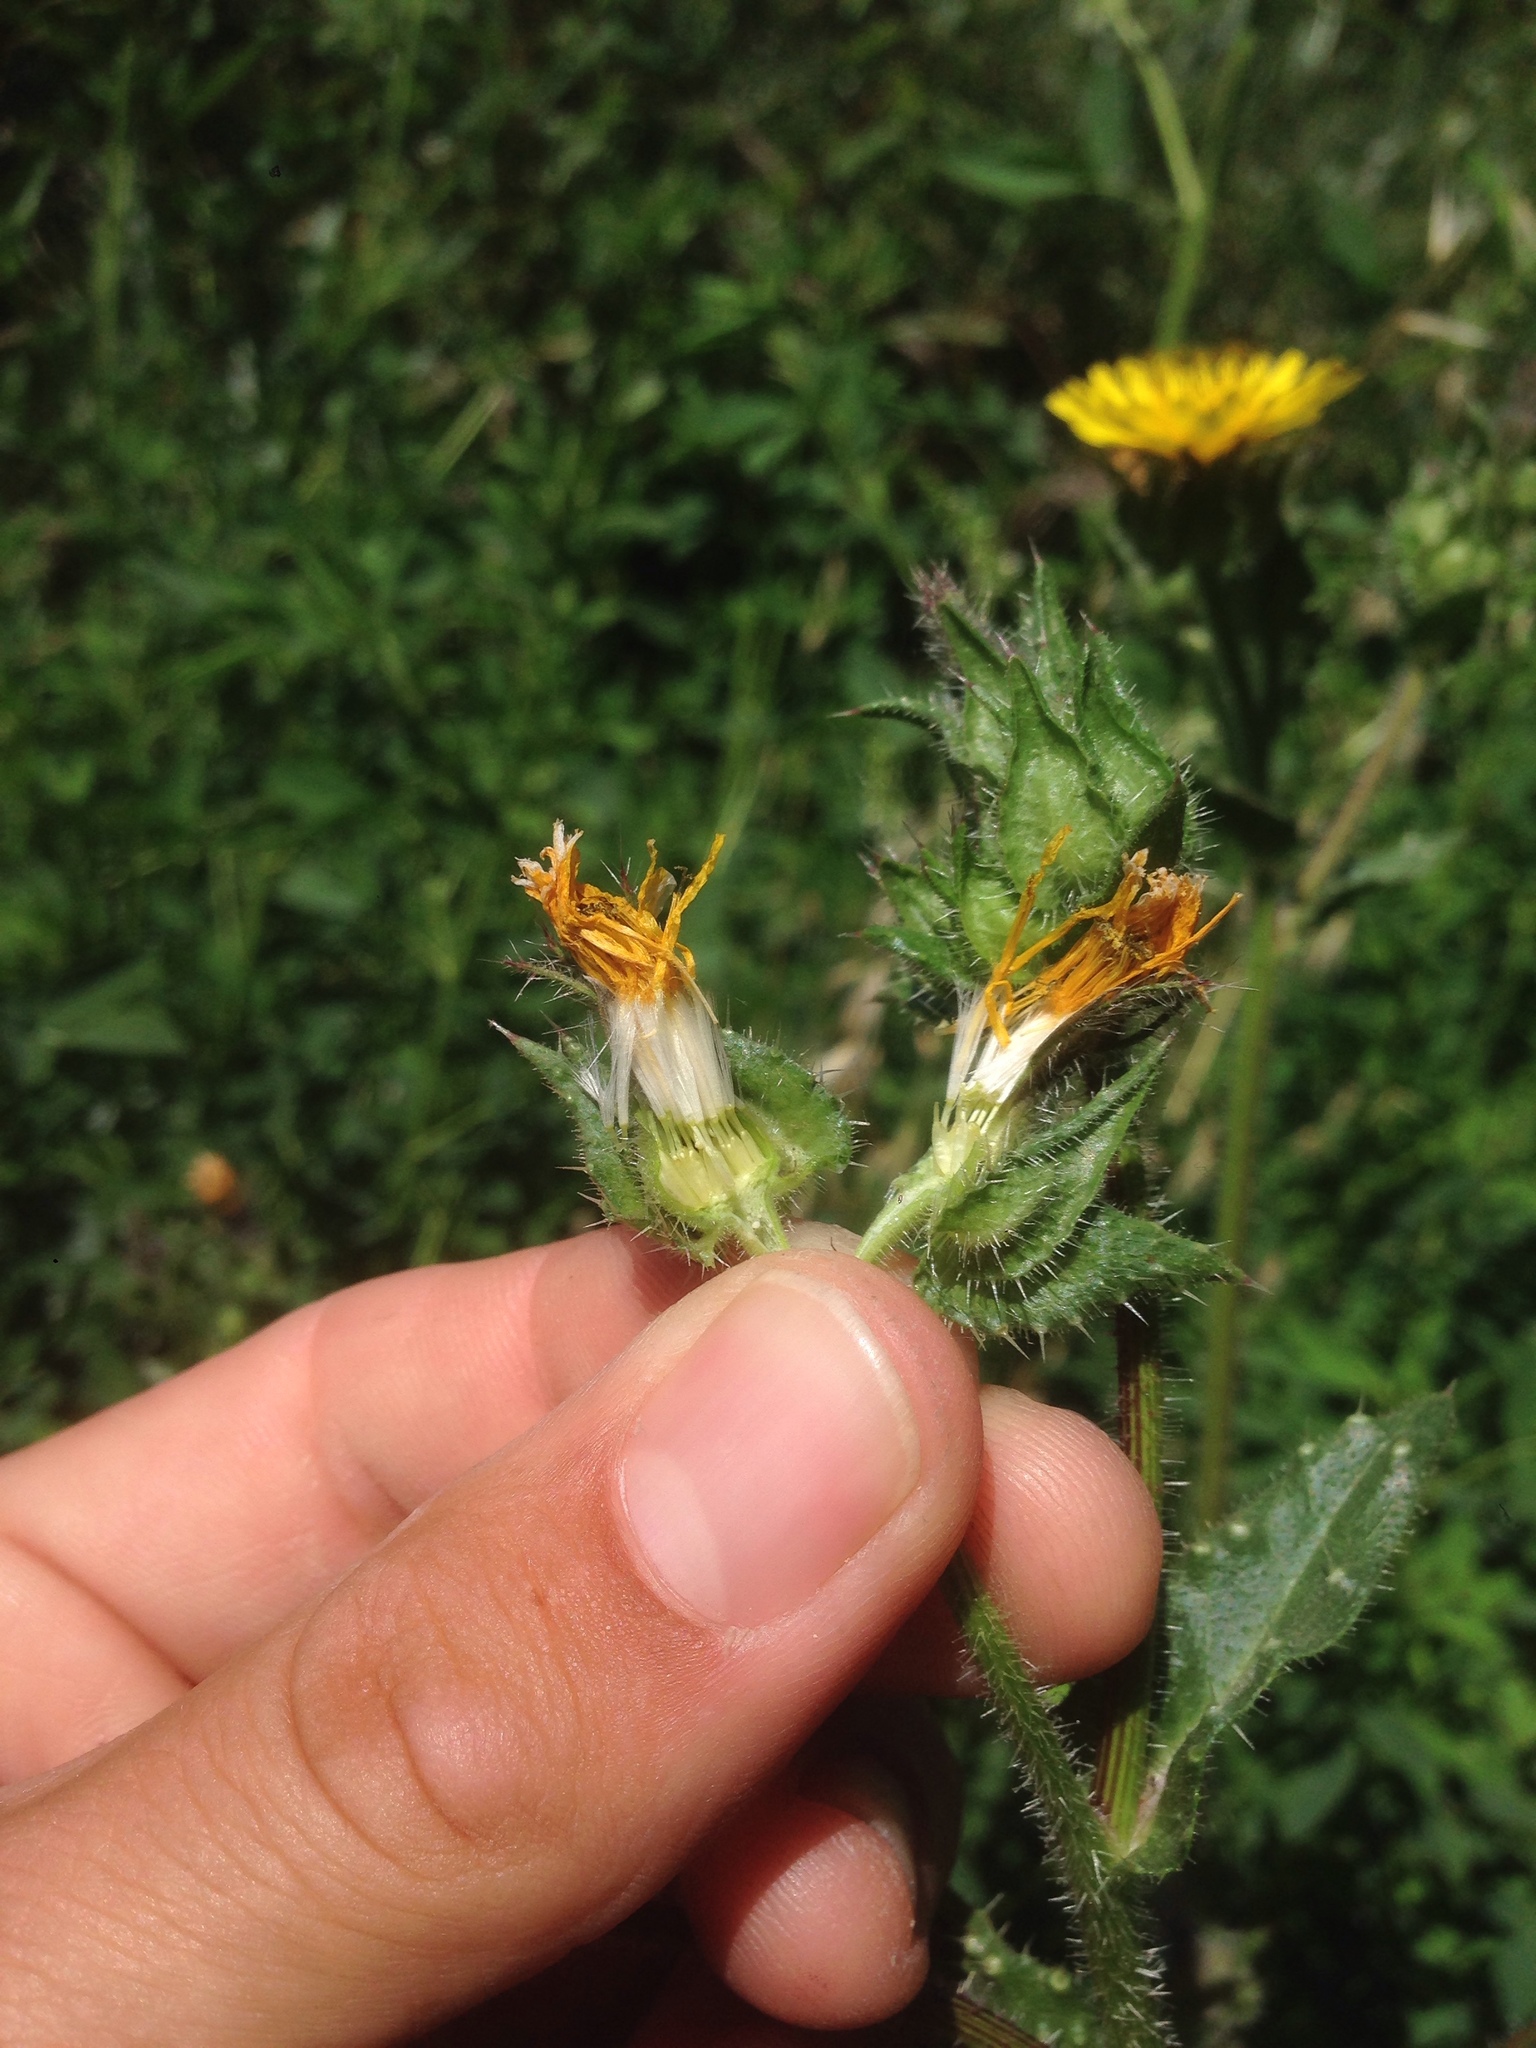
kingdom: Plantae
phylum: Tracheophyta
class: Magnoliopsida
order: Asterales
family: Asteraceae
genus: Helminthotheca
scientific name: Helminthotheca echioides
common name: Ox-tongue
